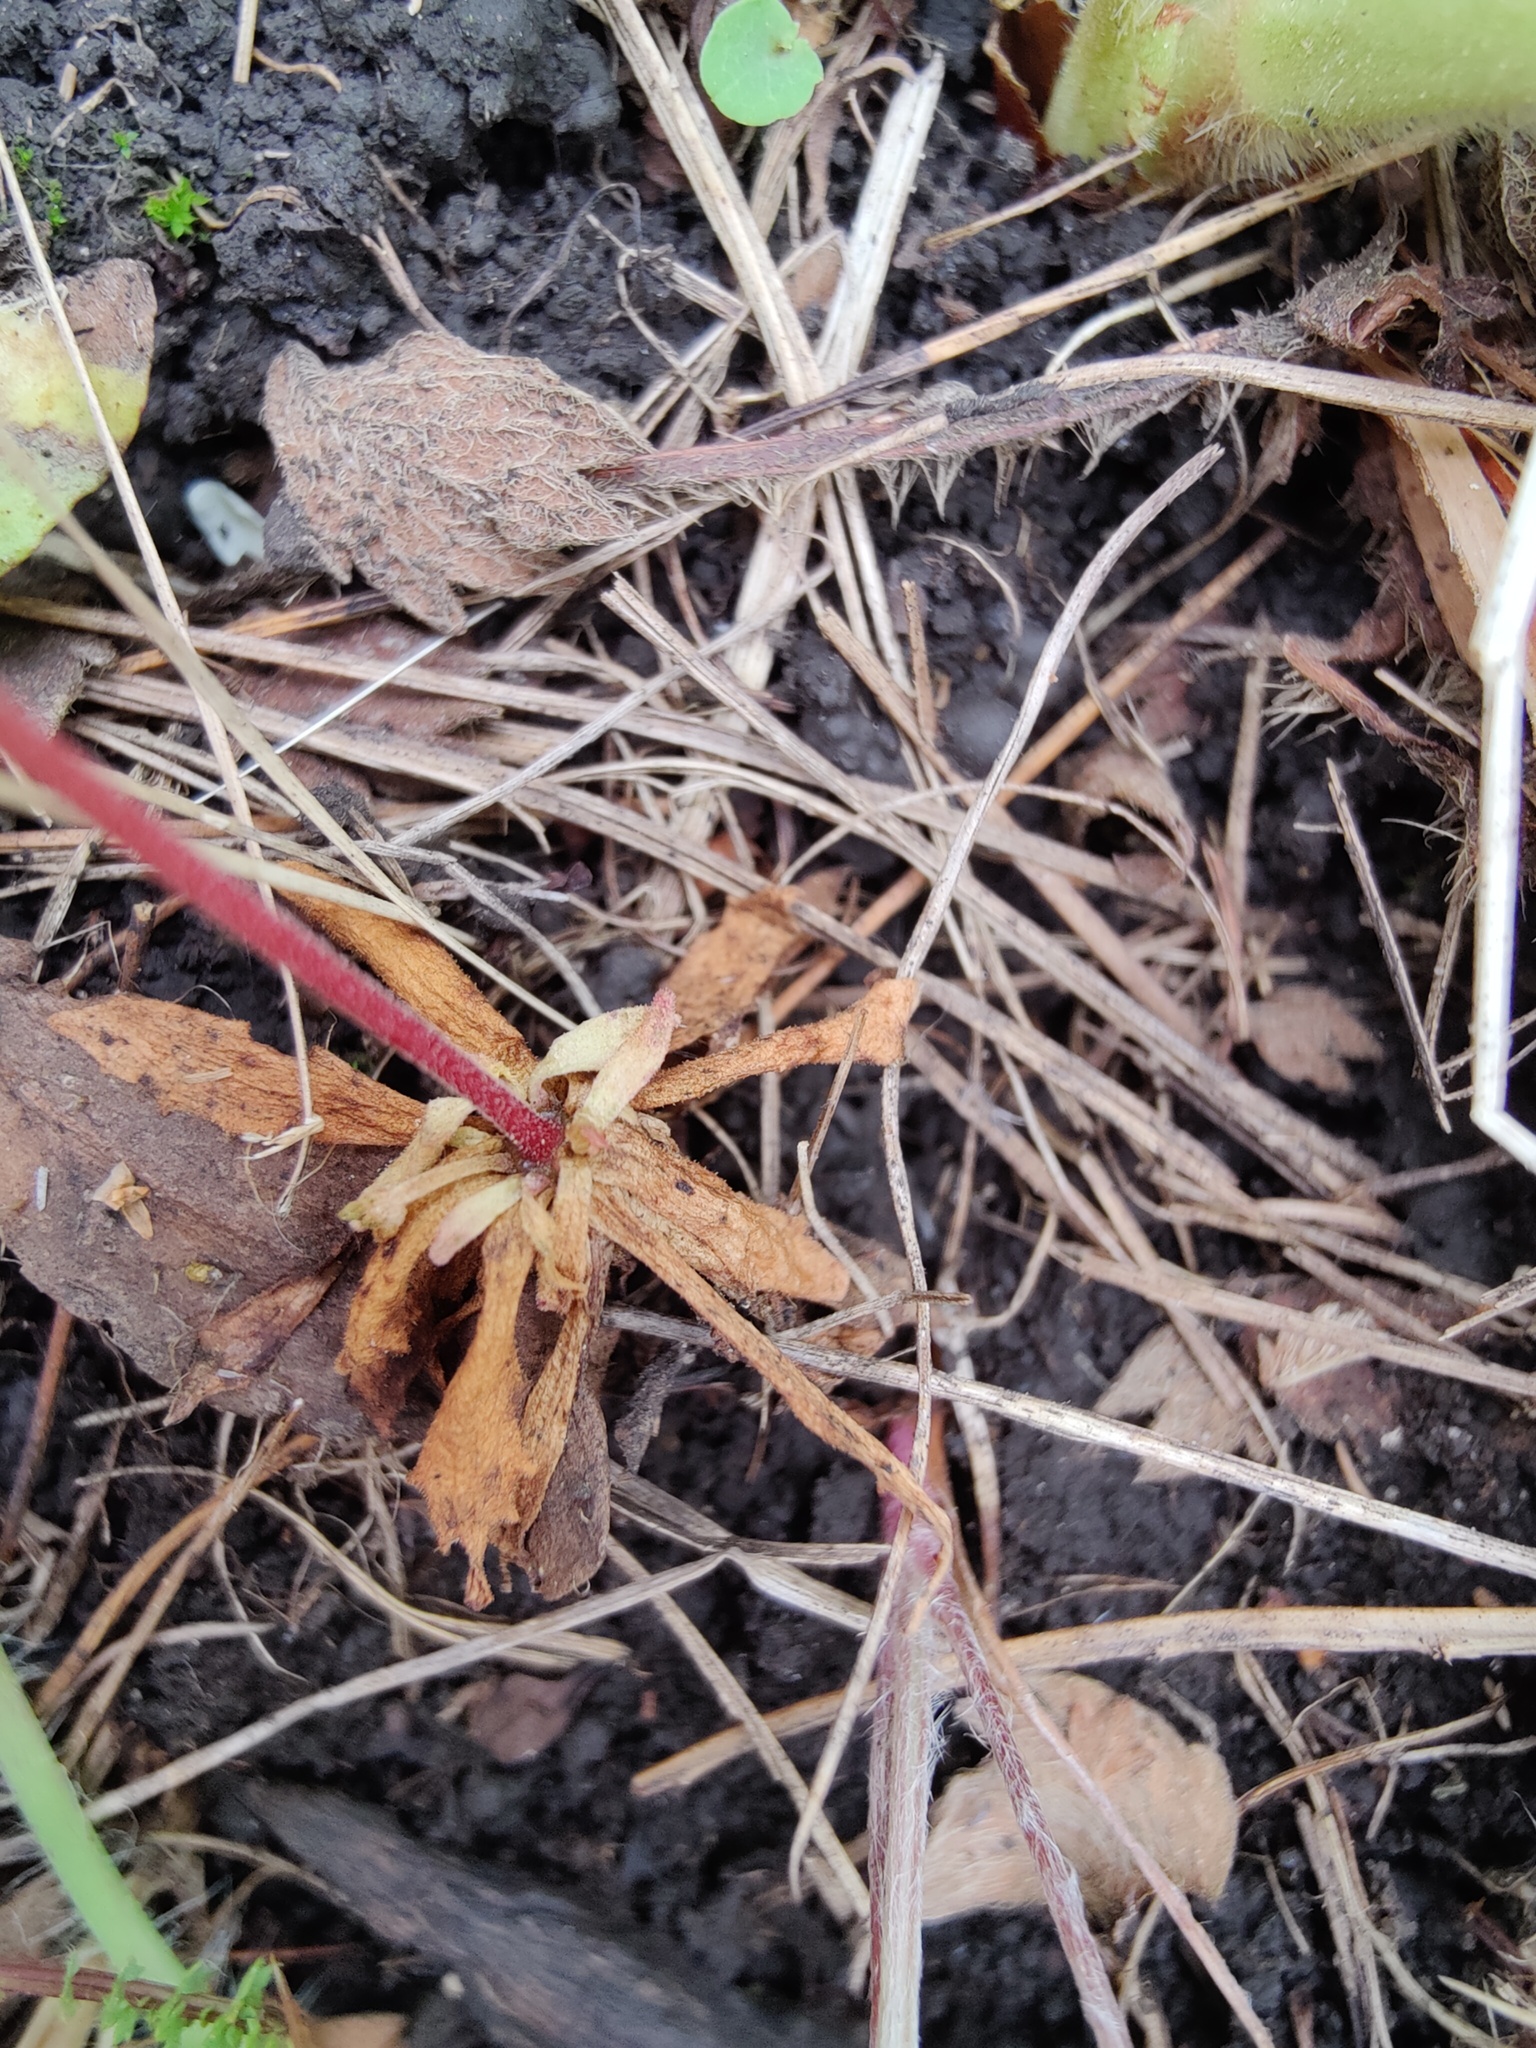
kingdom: Plantae
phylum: Tracheophyta
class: Magnoliopsida
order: Ericales
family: Primulaceae
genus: Androsace
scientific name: Androsace septentrionalis
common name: Hairy northern fairy-candelabra
